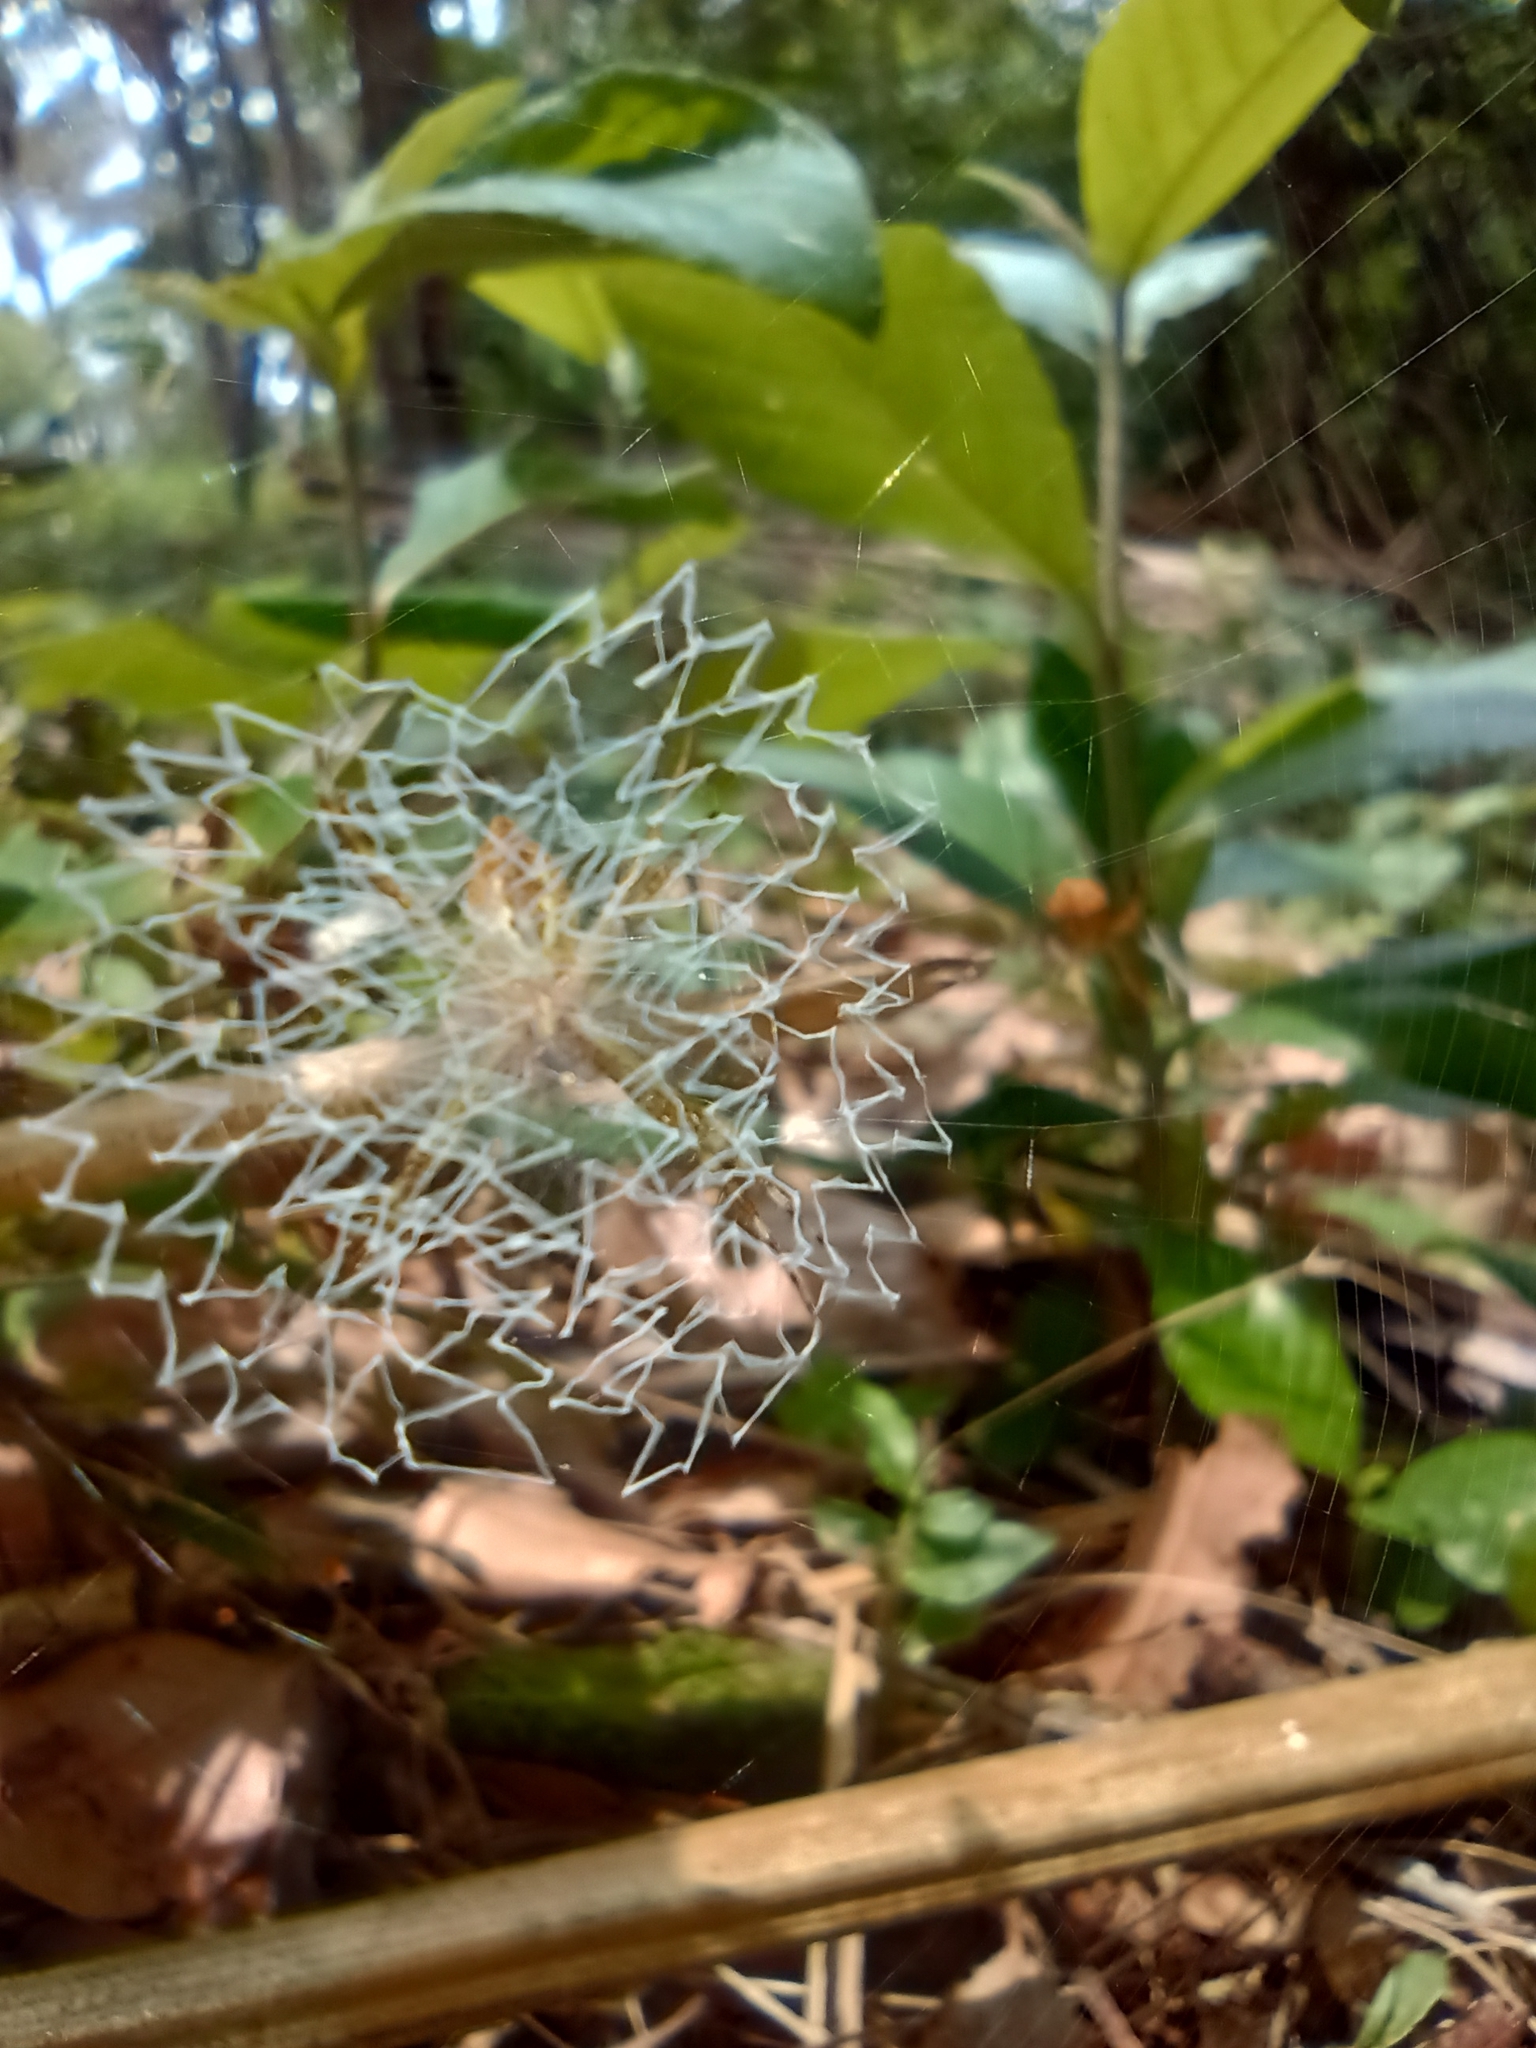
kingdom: Animalia
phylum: Arthropoda
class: Arachnida
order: Araneae
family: Araneidae
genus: Argiope
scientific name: Argiope argentata
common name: Orb weavers
